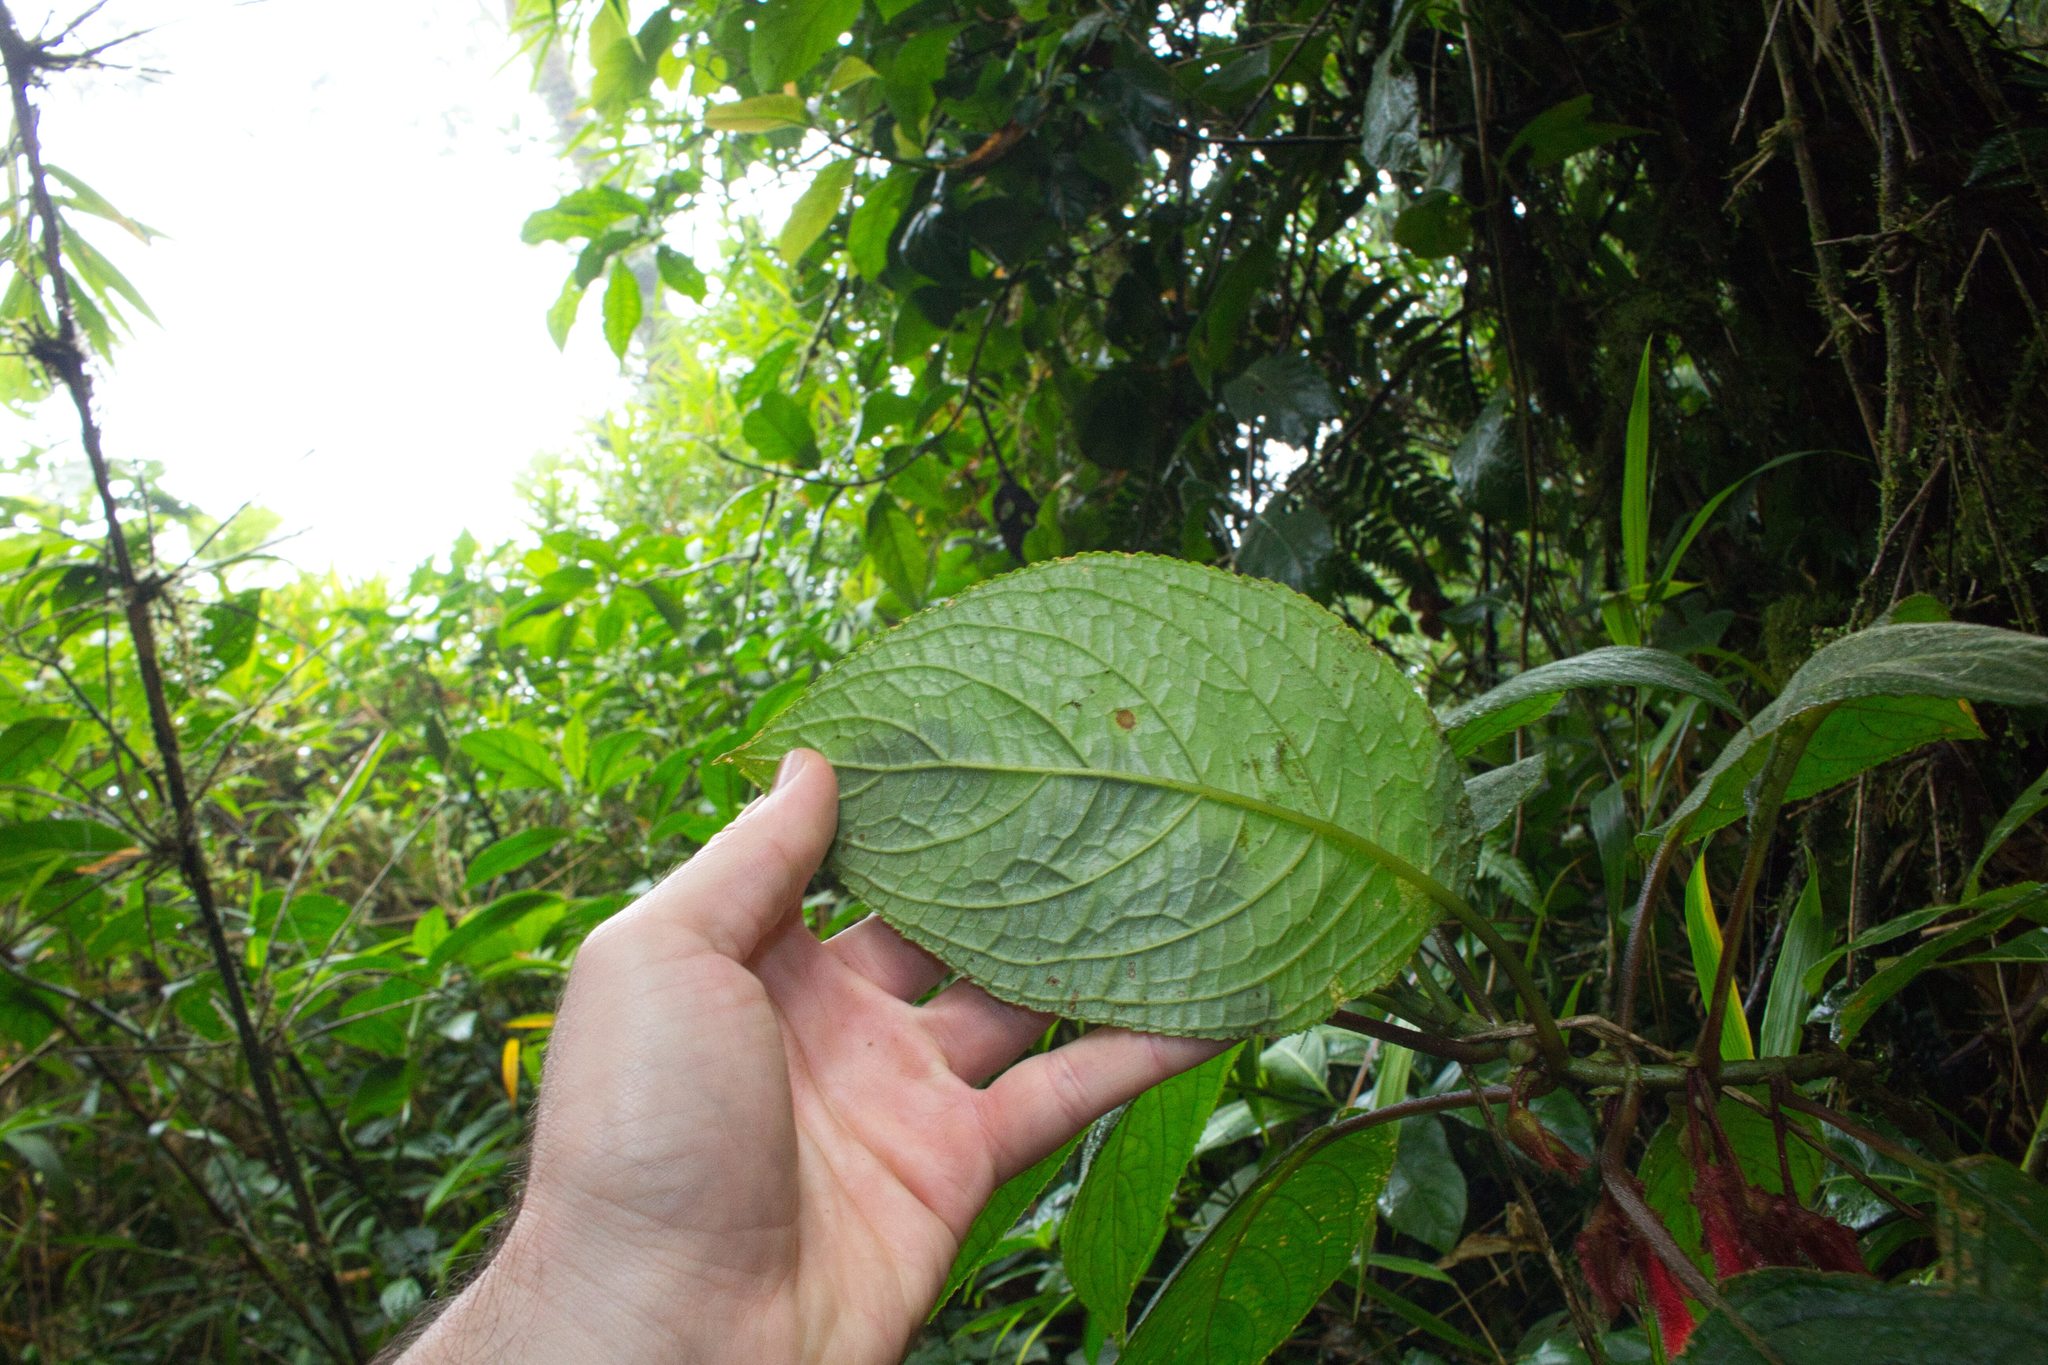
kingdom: Plantae
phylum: Tracheophyta
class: Magnoliopsida
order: Lamiales
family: Gesneriaceae
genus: Glossoloma
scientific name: Glossoloma tetragonum
